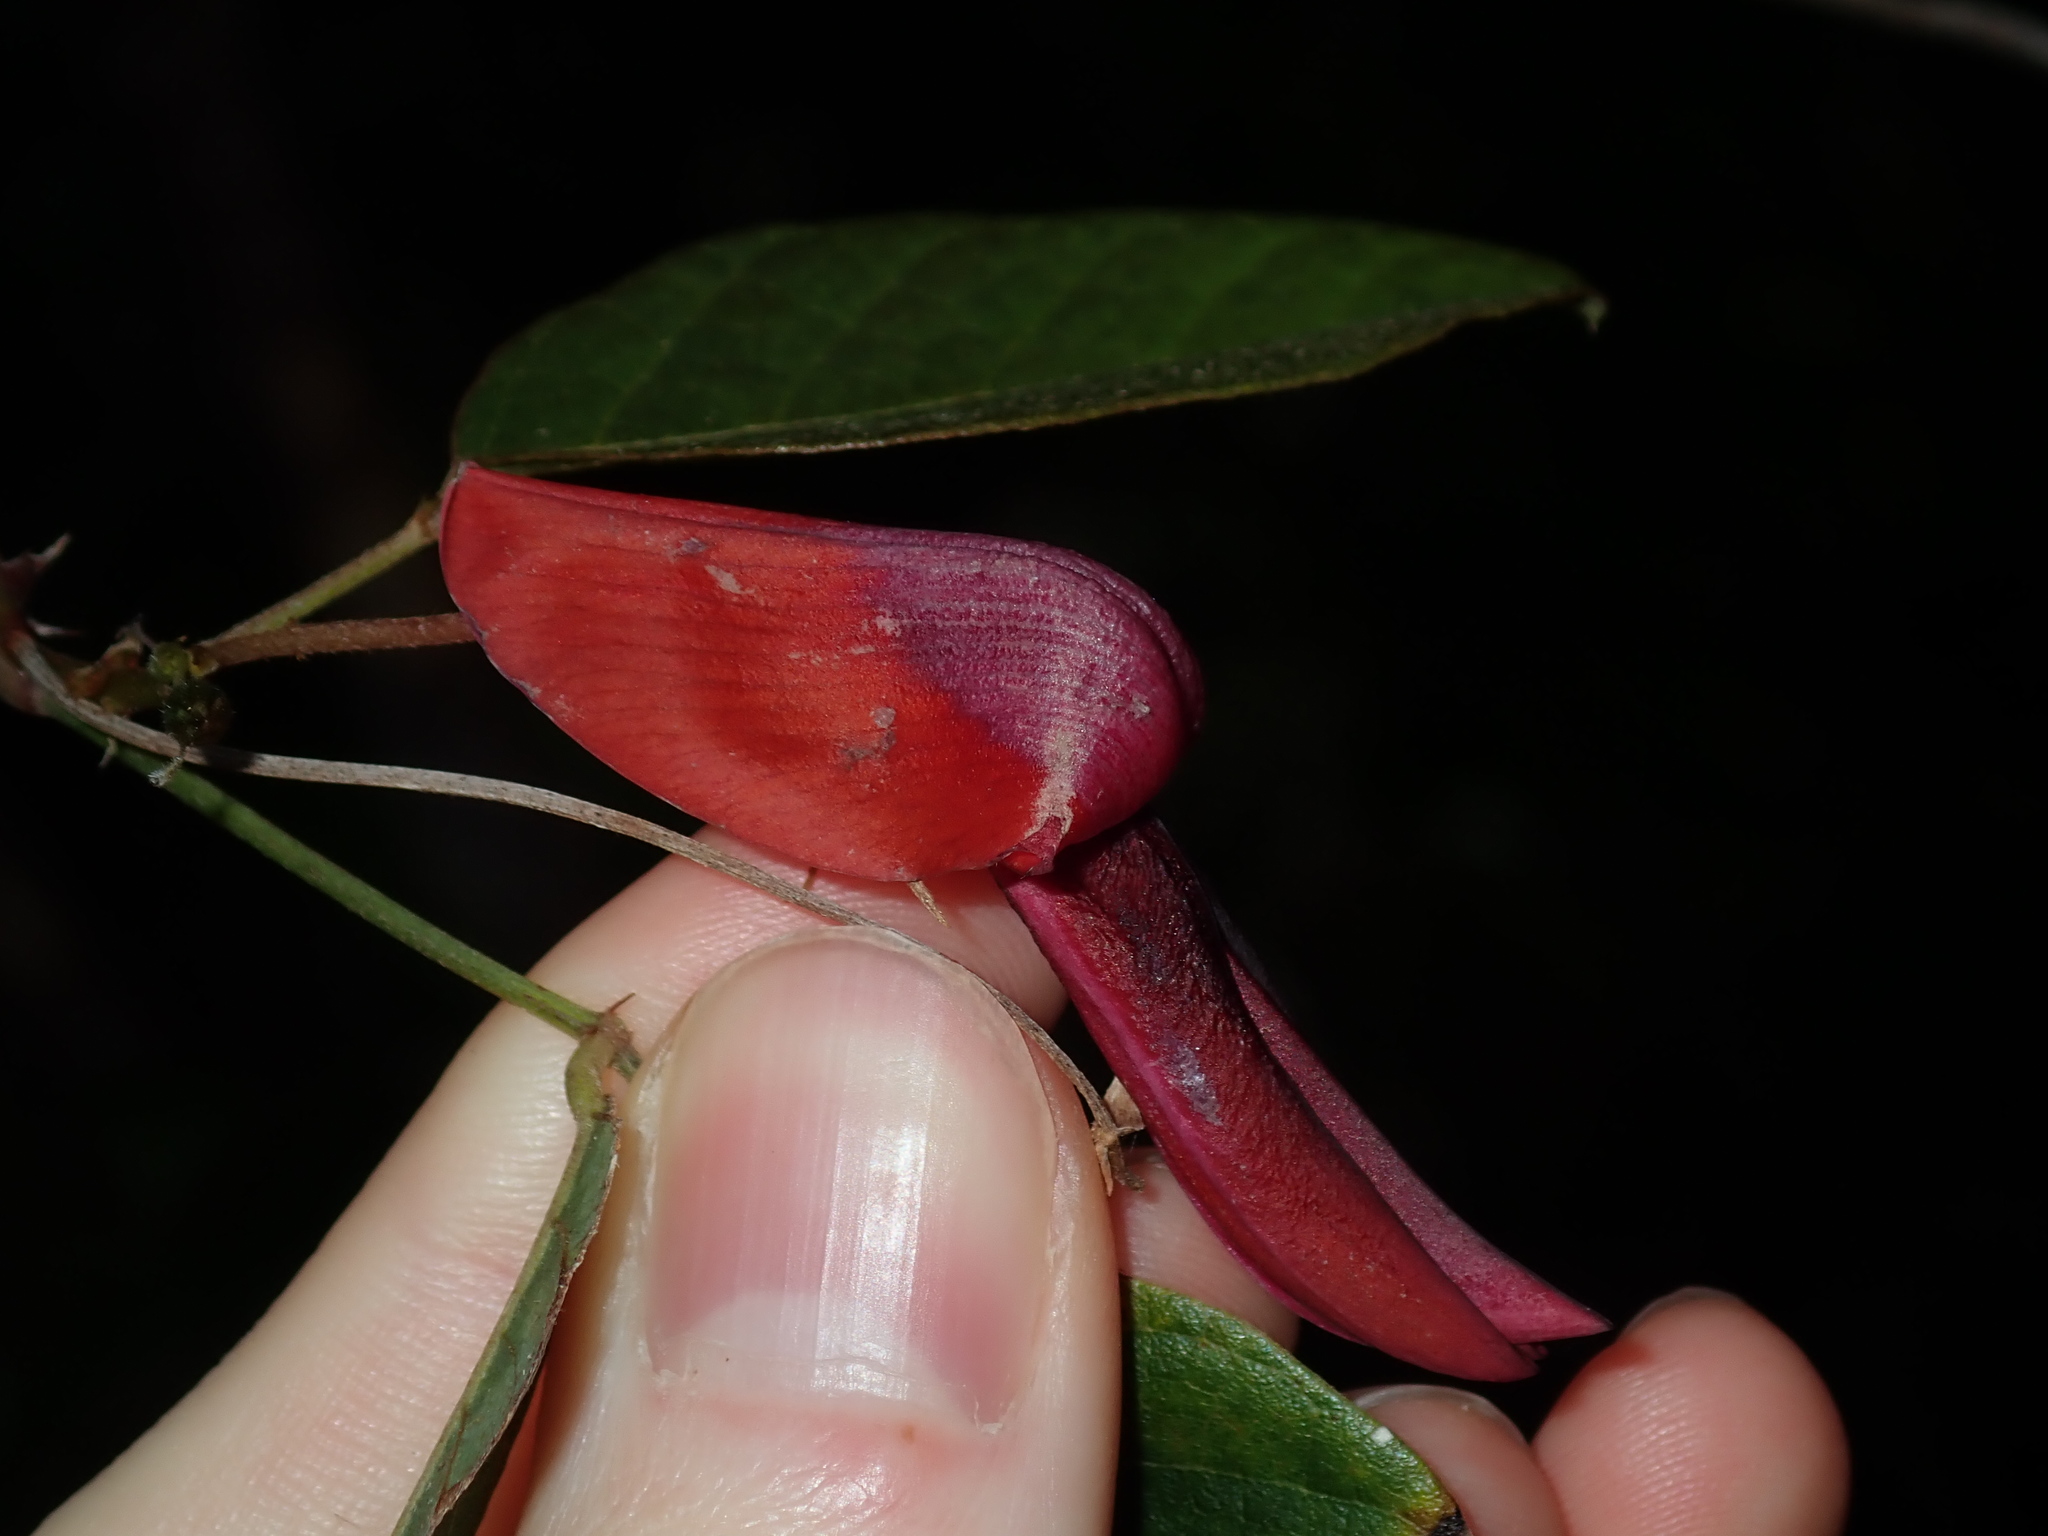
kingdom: Plantae
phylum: Tracheophyta
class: Magnoliopsida
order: Fabales
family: Fabaceae
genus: Kennedia
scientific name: Kennedia rubicunda
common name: Red kennedy-pea
